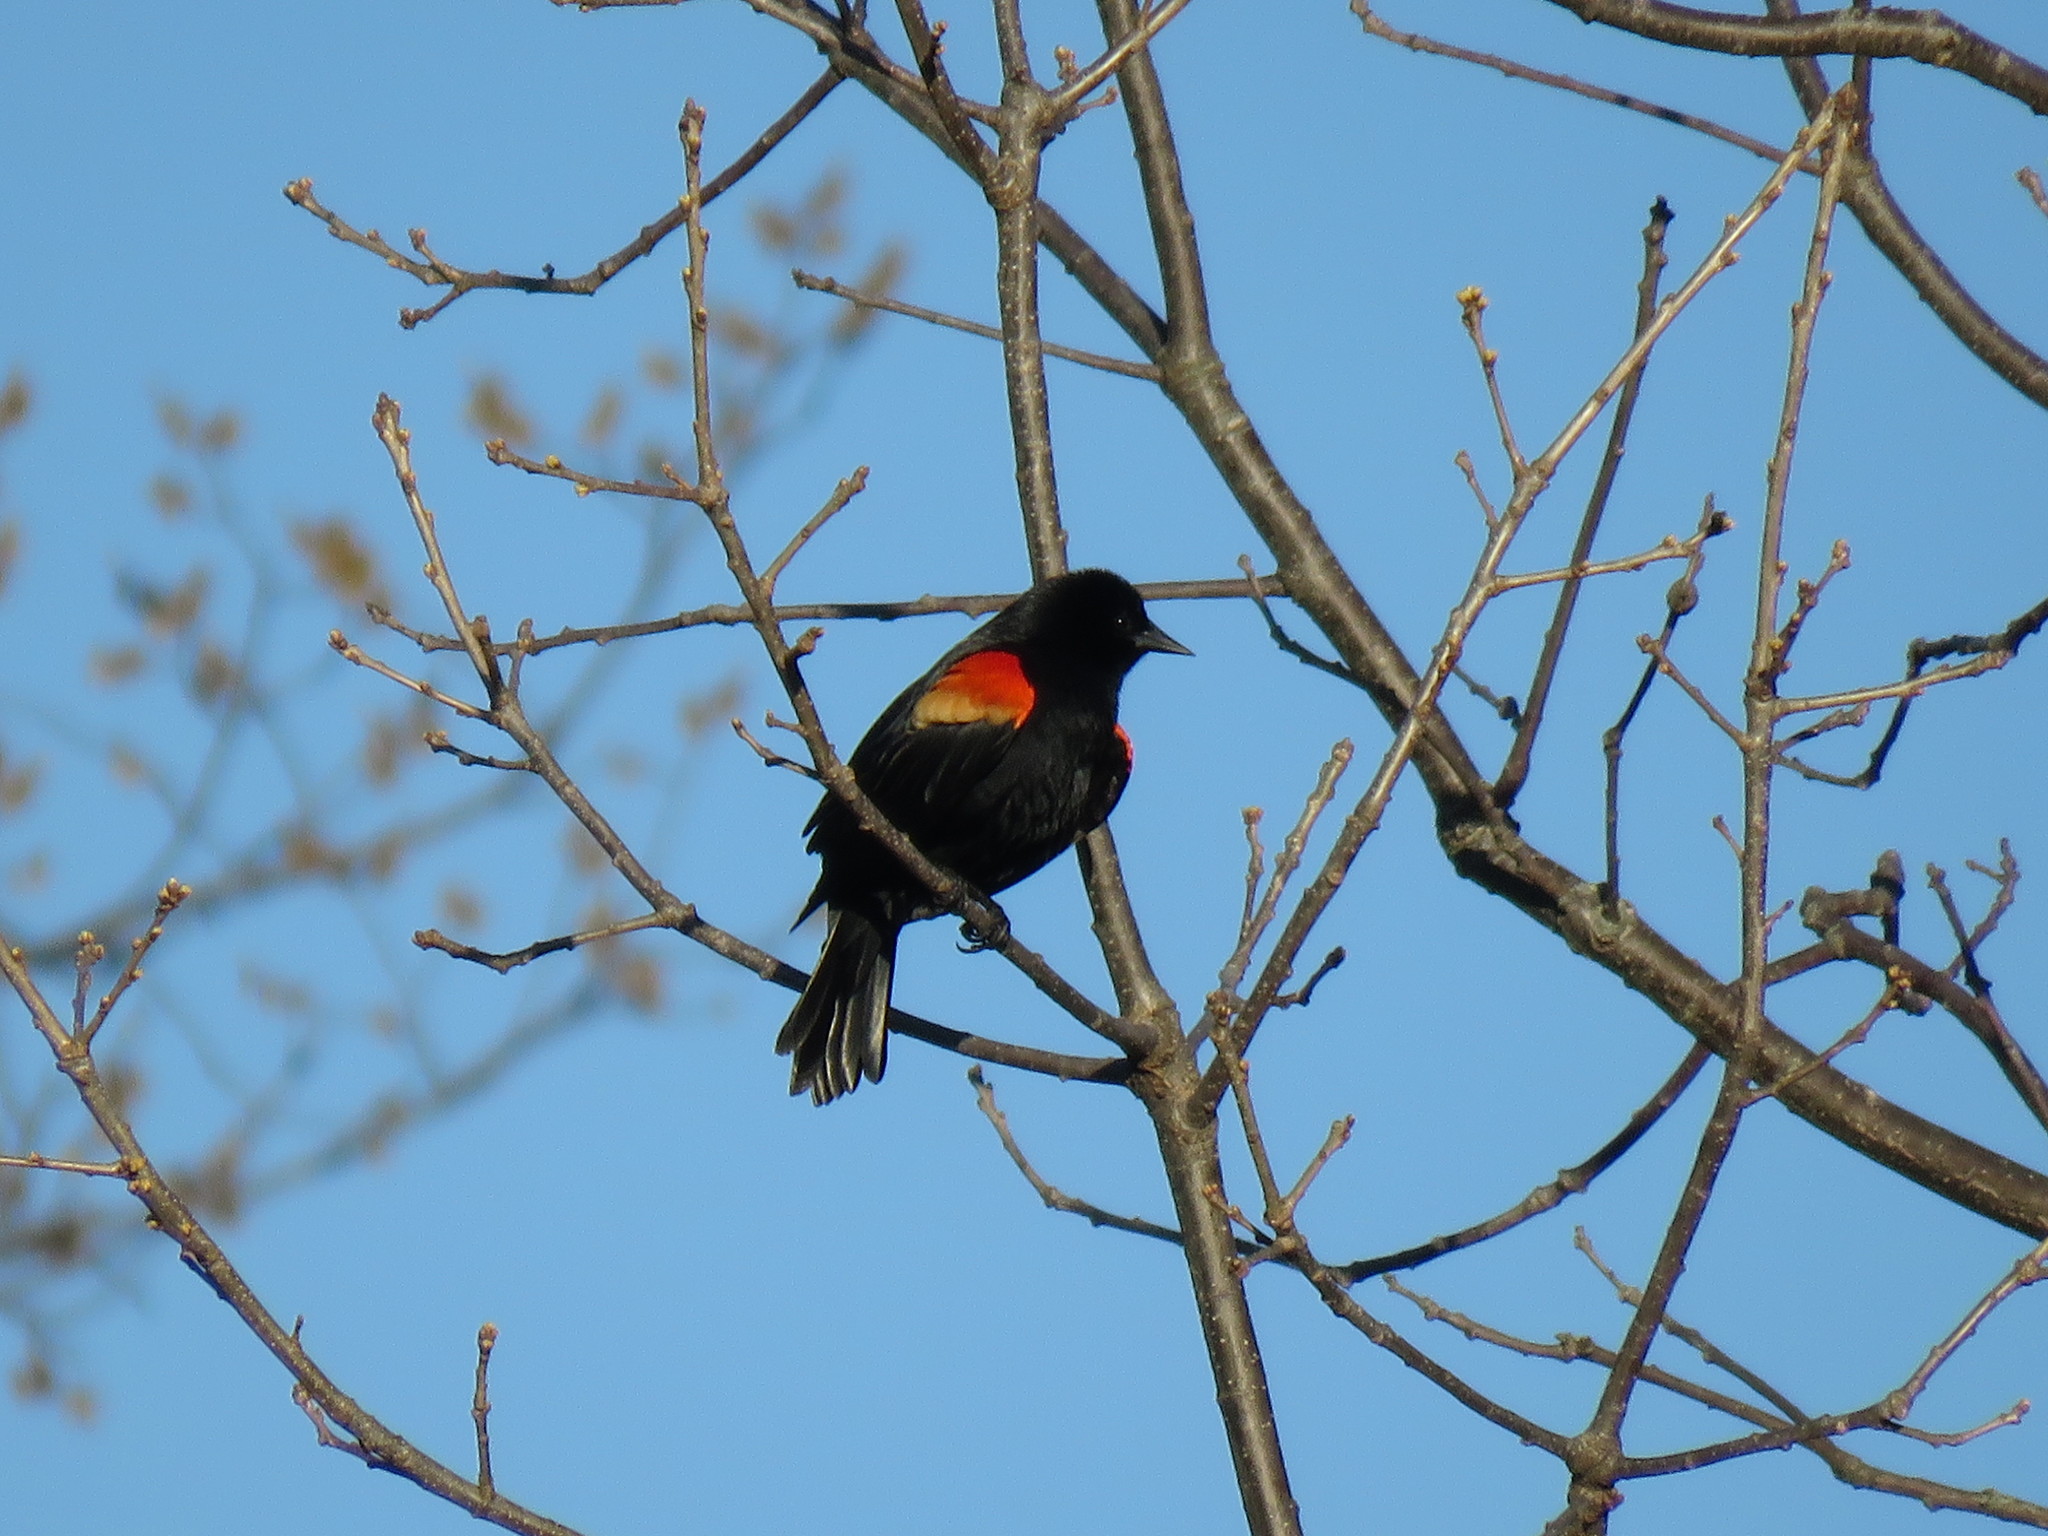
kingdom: Animalia
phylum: Chordata
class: Aves
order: Passeriformes
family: Icteridae
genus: Agelaius
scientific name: Agelaius phoeniceus
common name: Red-winged blackbird
